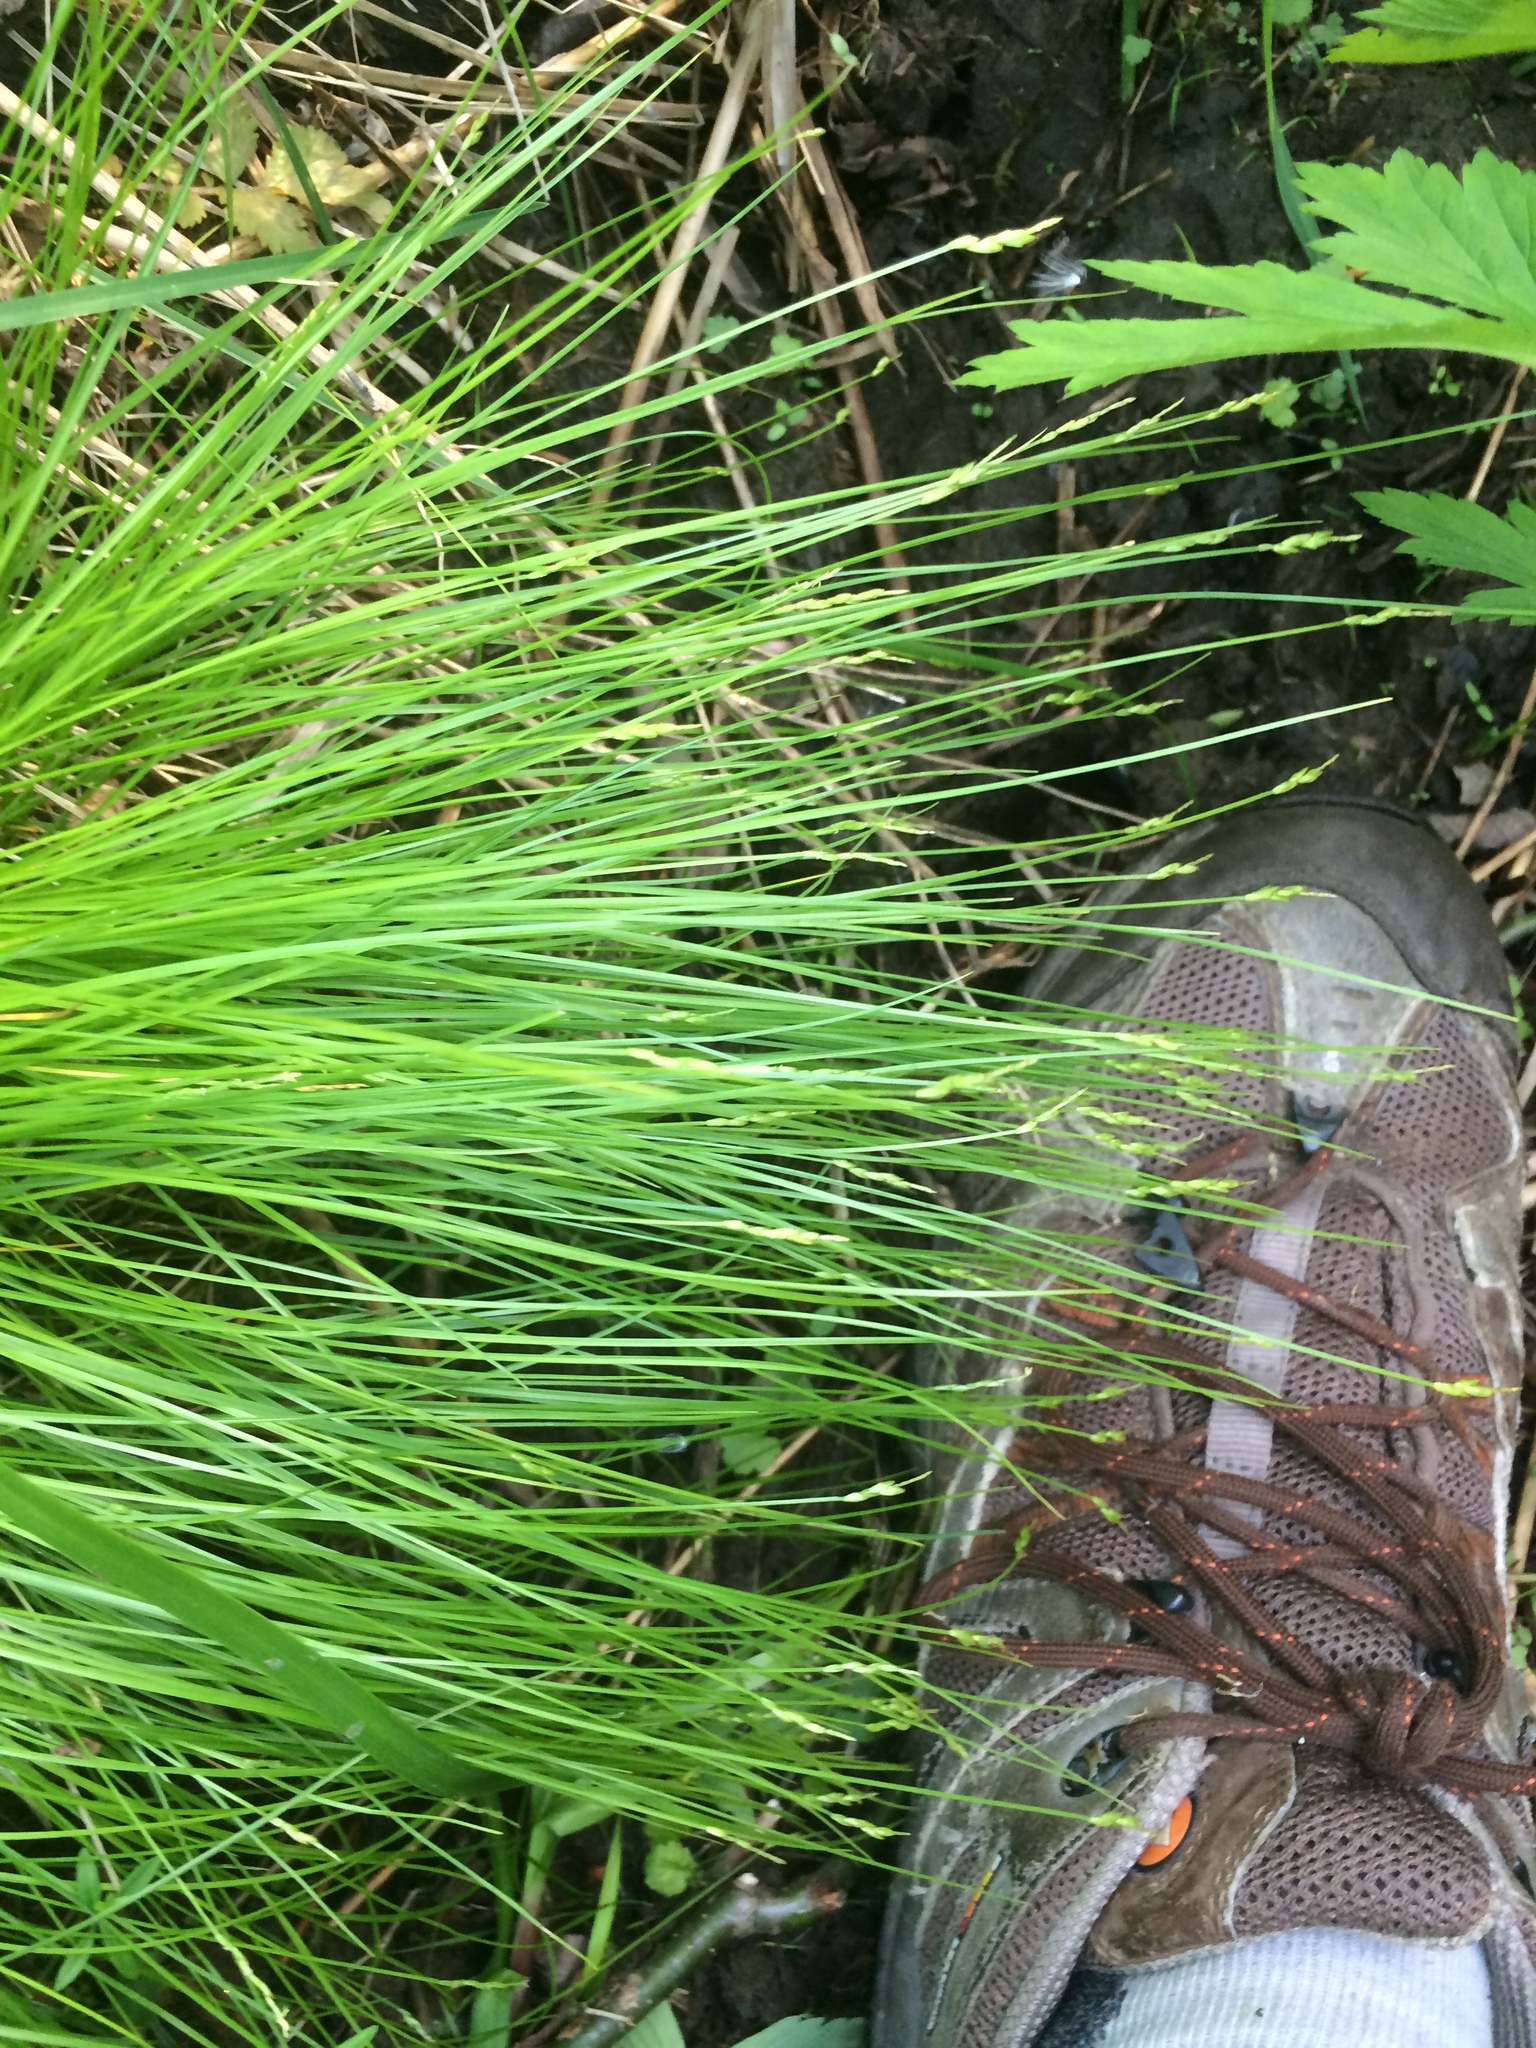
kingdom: Plantae
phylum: Tracheophyta
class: Liliopsida
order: Poales
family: Cyperaceae
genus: Carex
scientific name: Carex leptalea
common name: Bristly-stalked sedge
